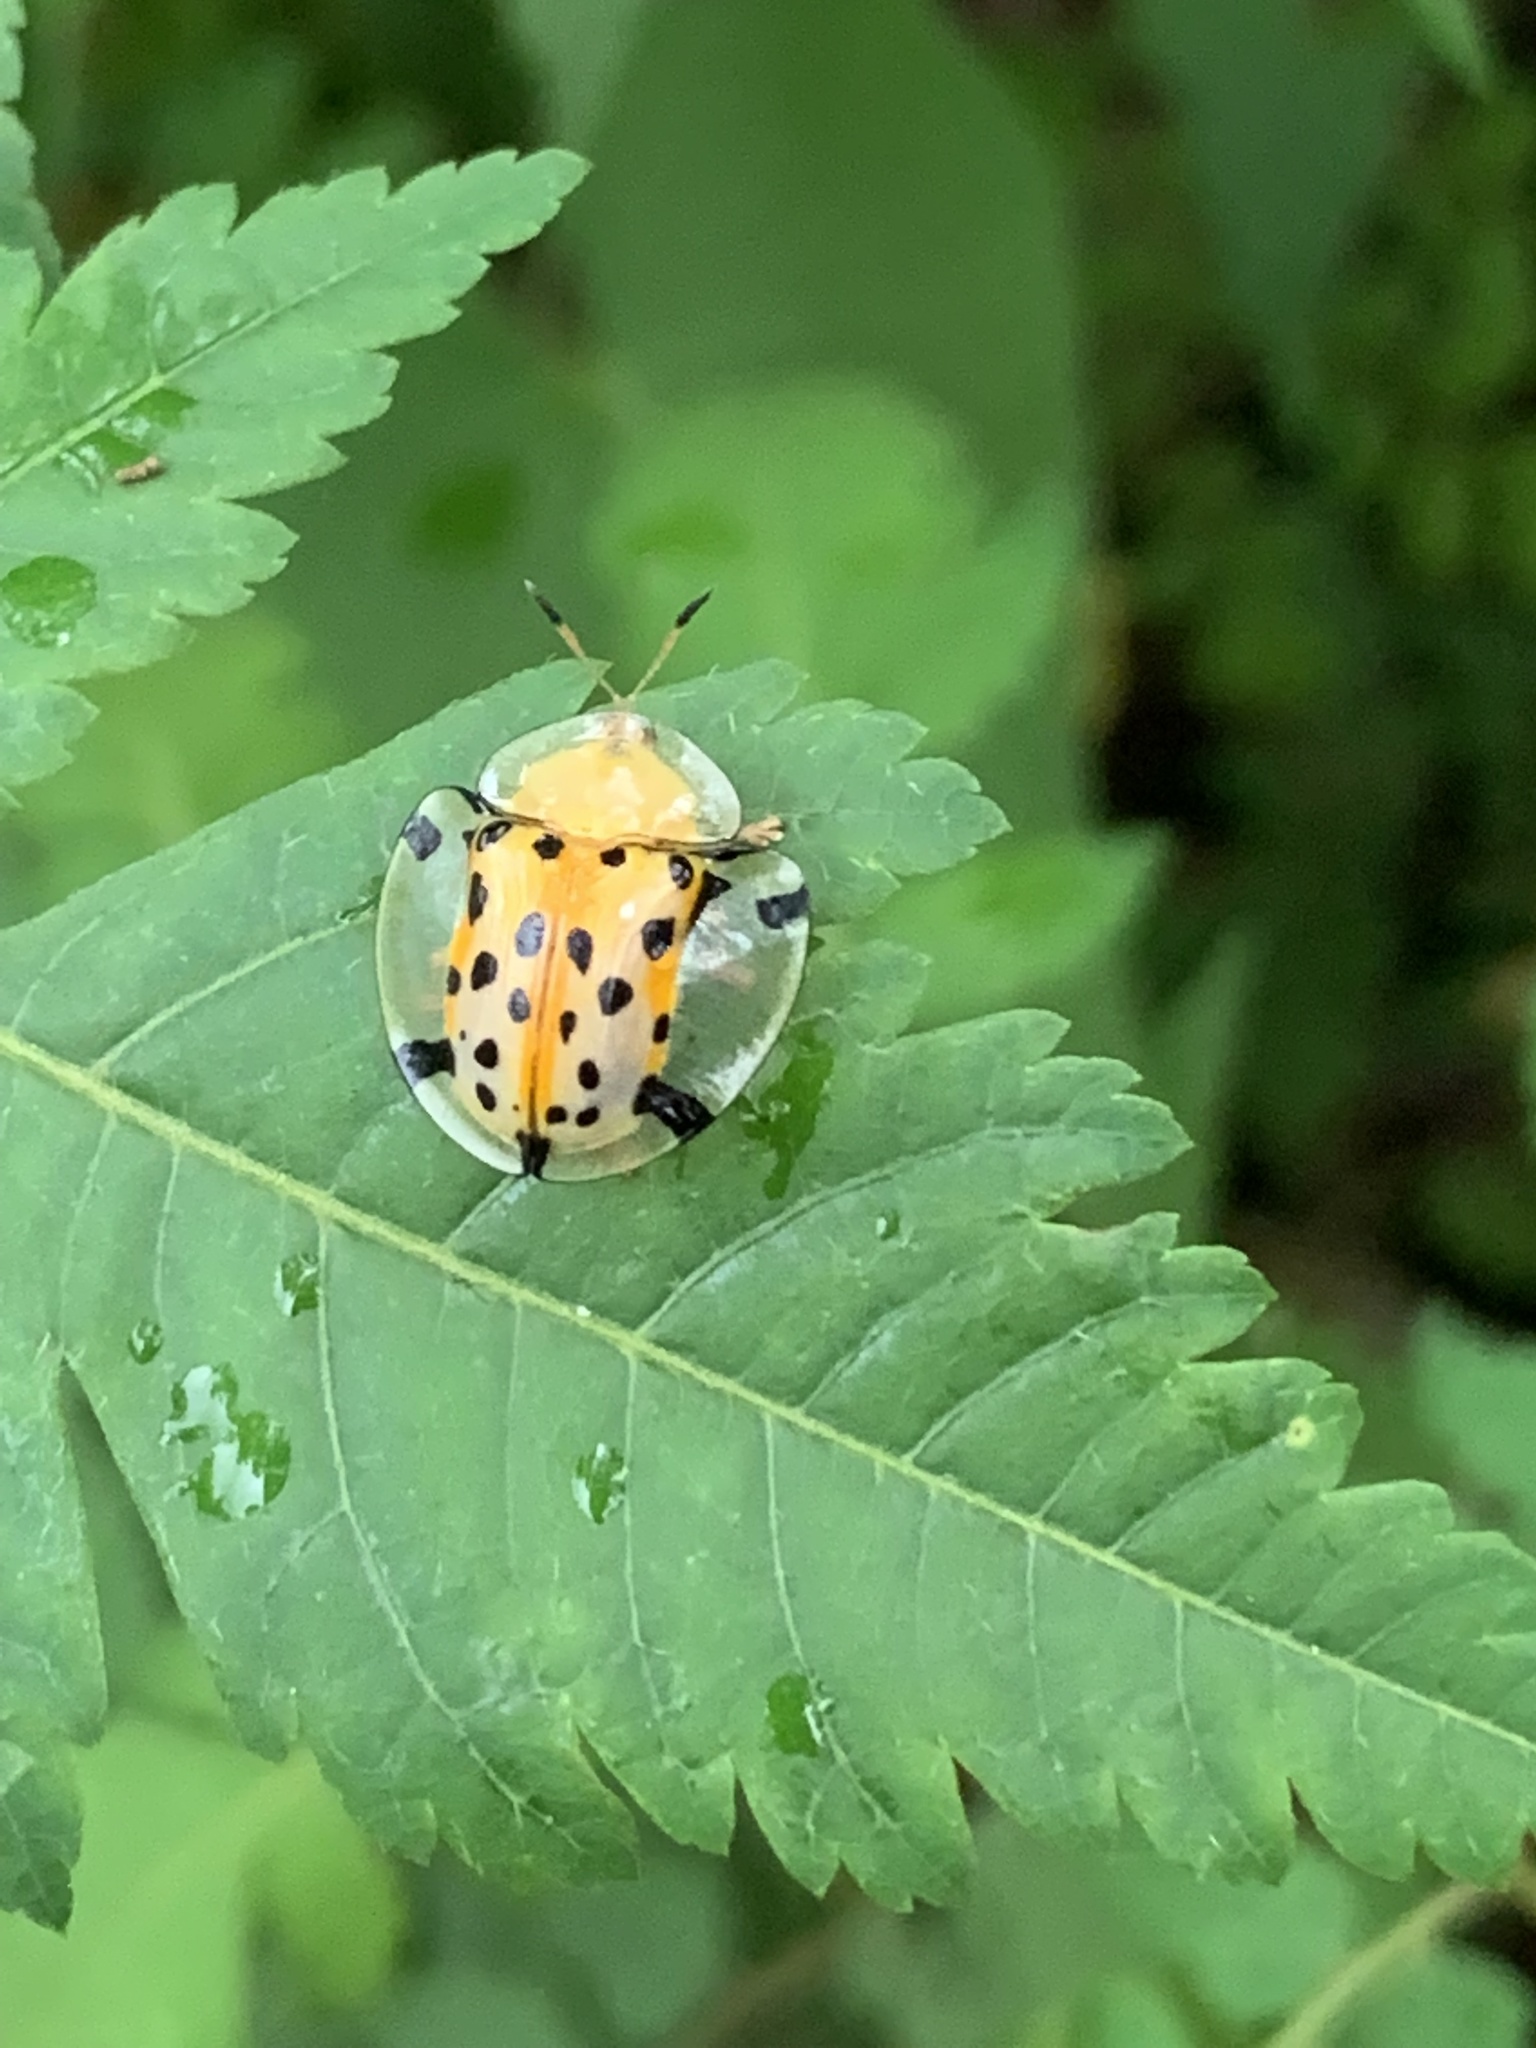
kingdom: Animalia
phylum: Arthropoda
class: Insecta
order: Coleoptera
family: Chrysomelidae
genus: Aspidimorpha
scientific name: Aspidimorpha miliaris
